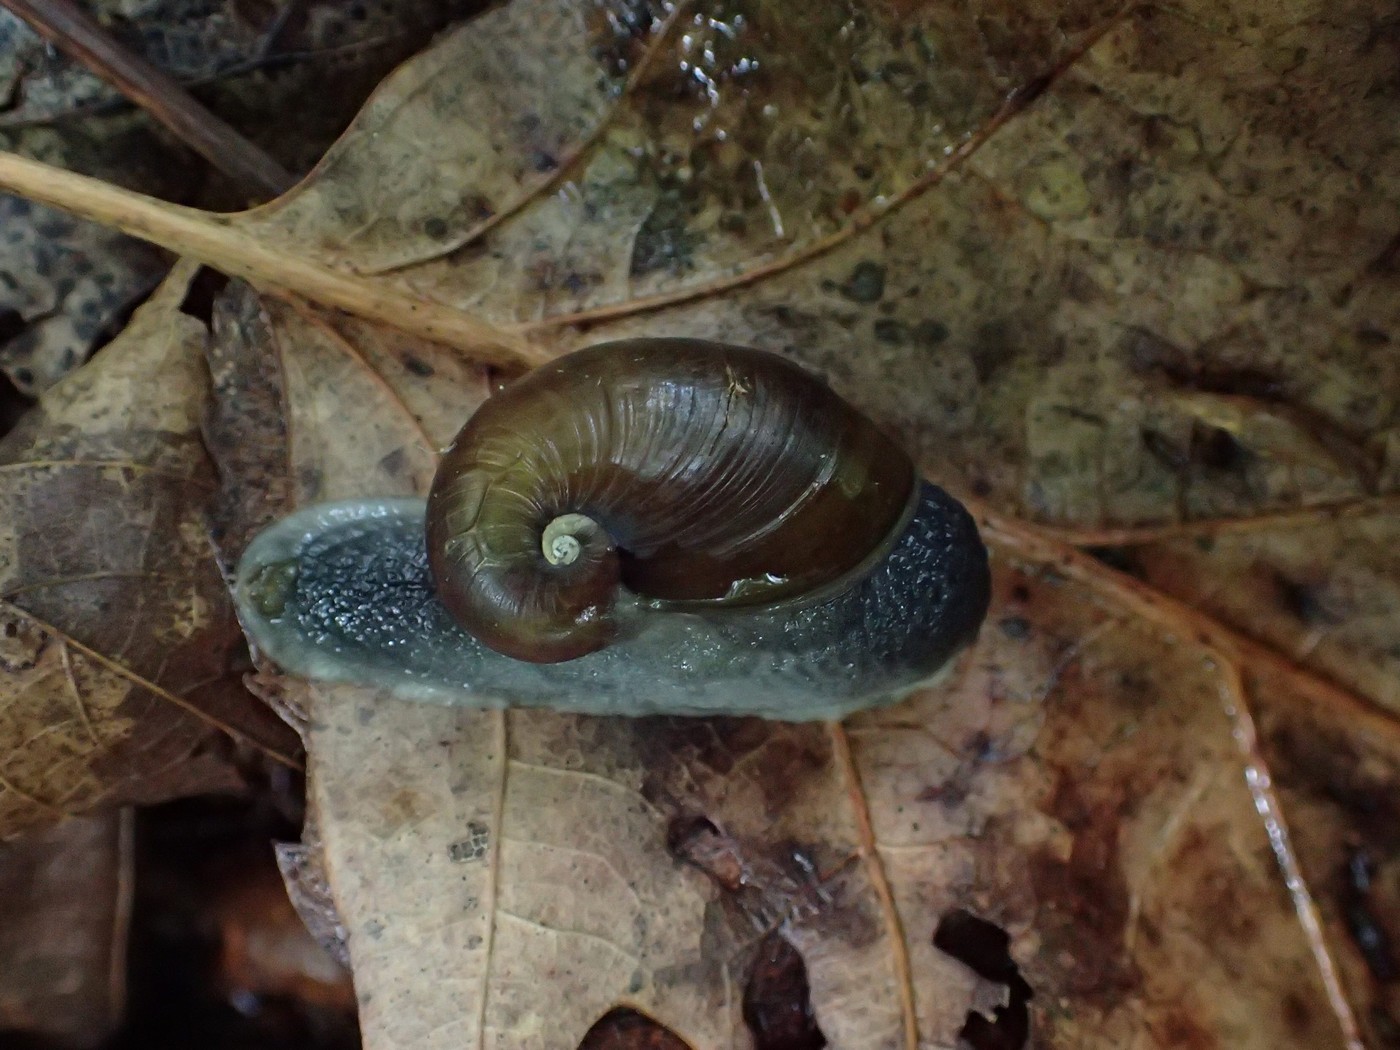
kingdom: Animalia
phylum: Mollusca
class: Gastropoda
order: Stylommatophora
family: Gastrodontidae
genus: Vitrinizonites
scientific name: Vitrinizonites latissimus
